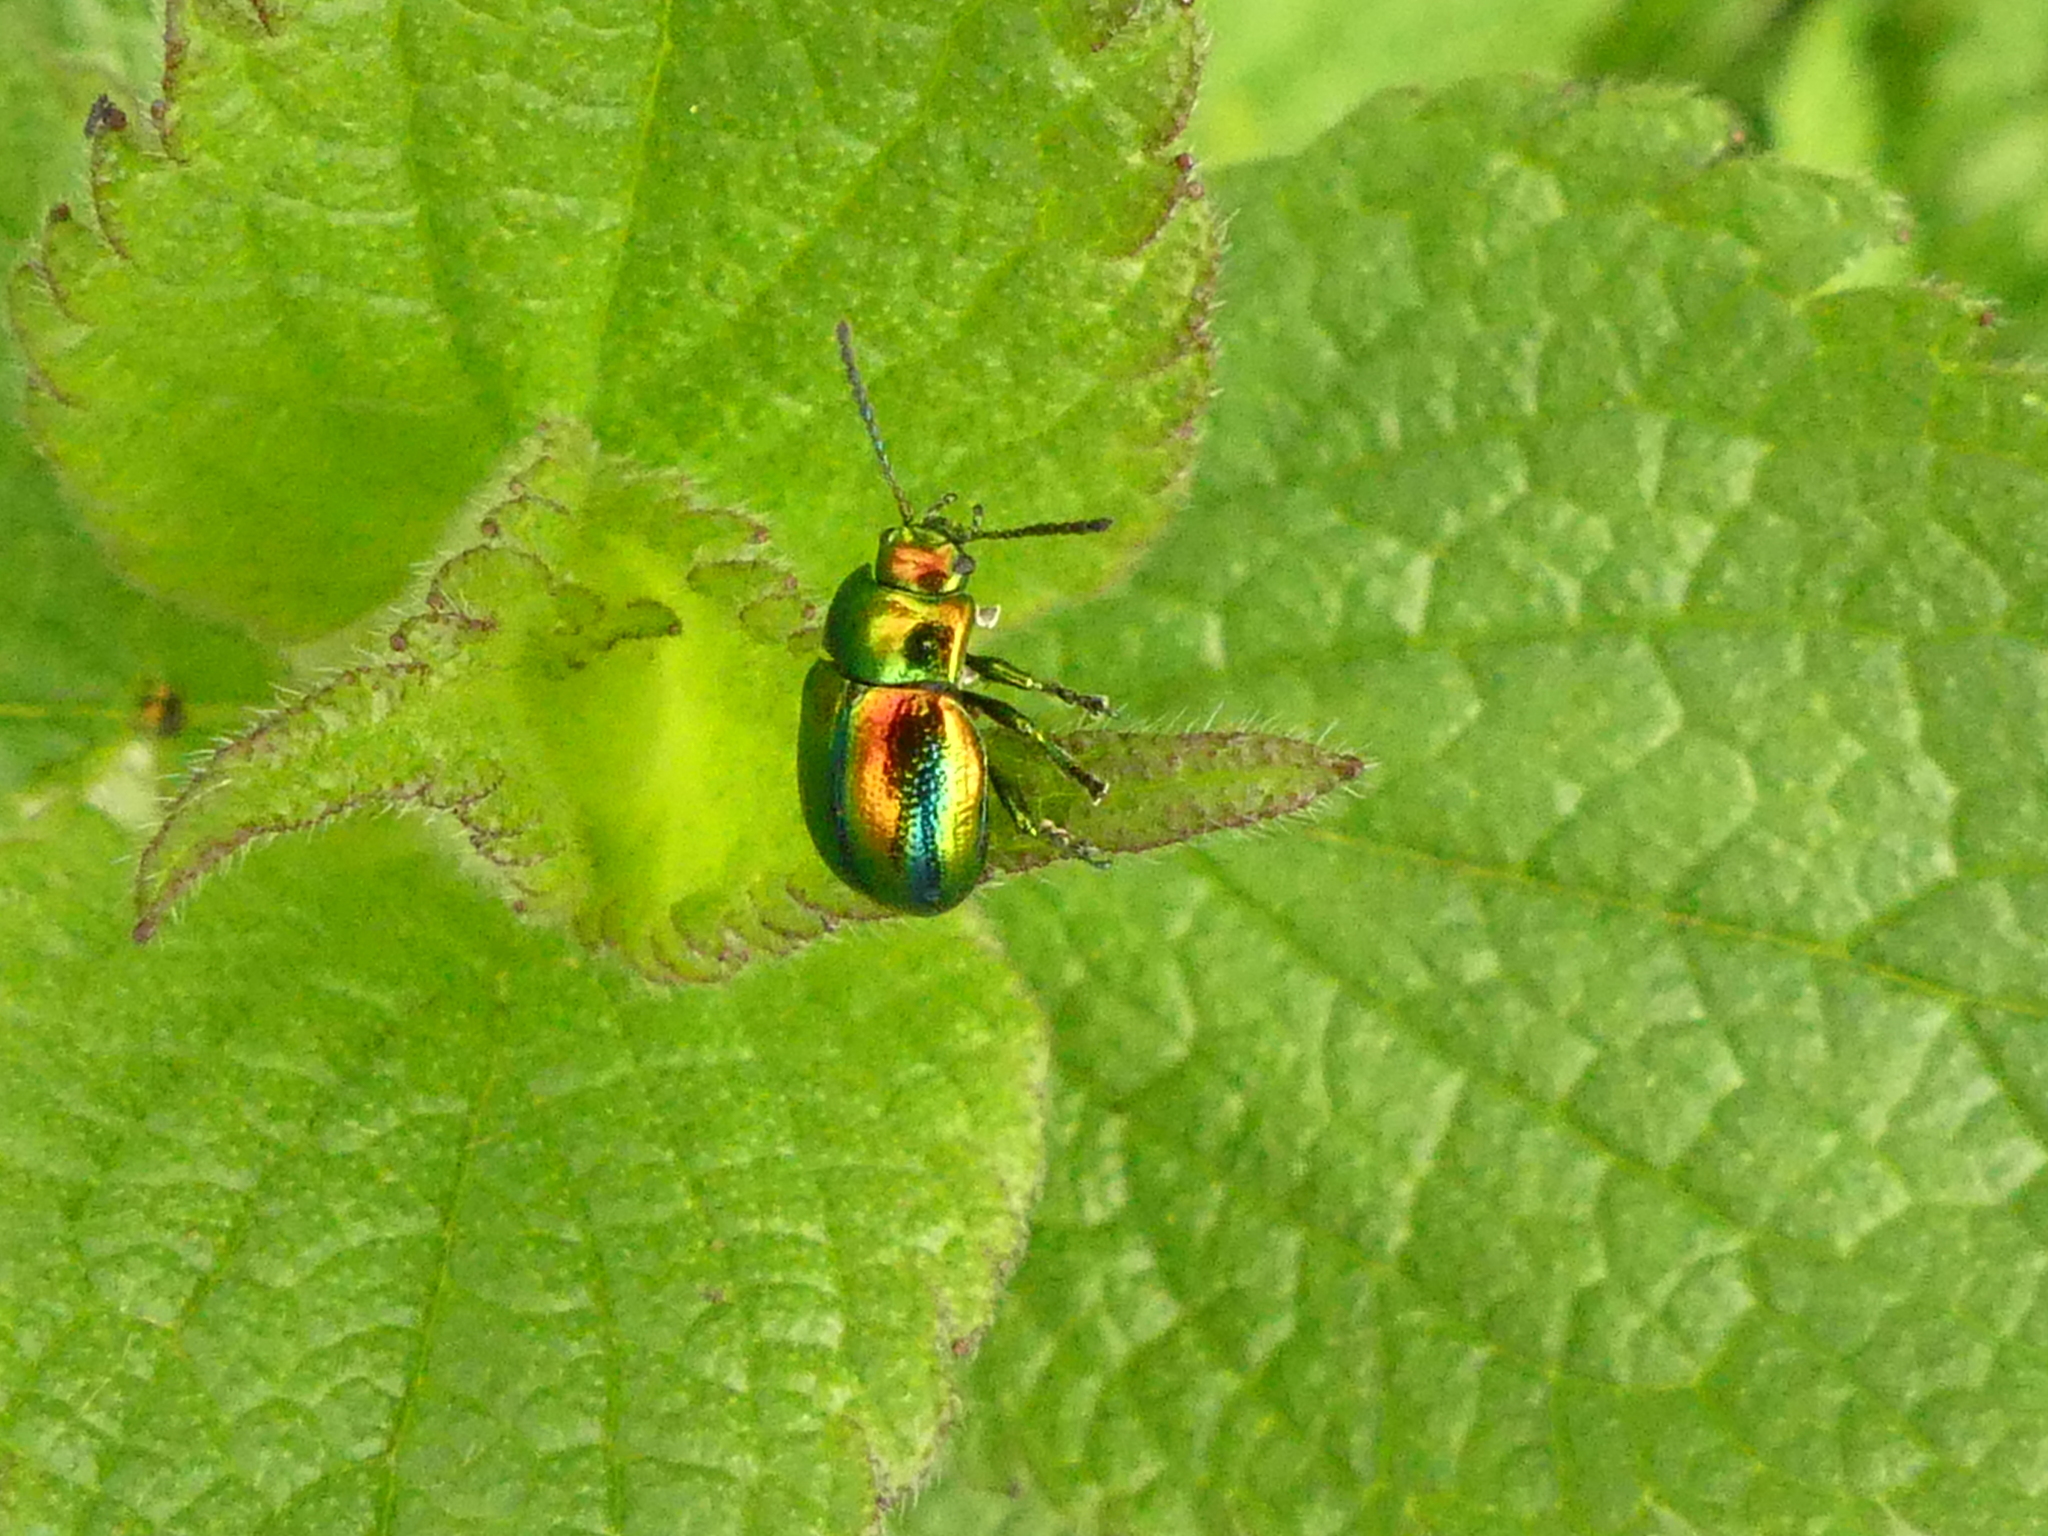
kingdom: Animalia
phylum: Arthropoda
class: Insecta
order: Coleoptera
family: Chrysomelidae
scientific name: Chrysomelidae
